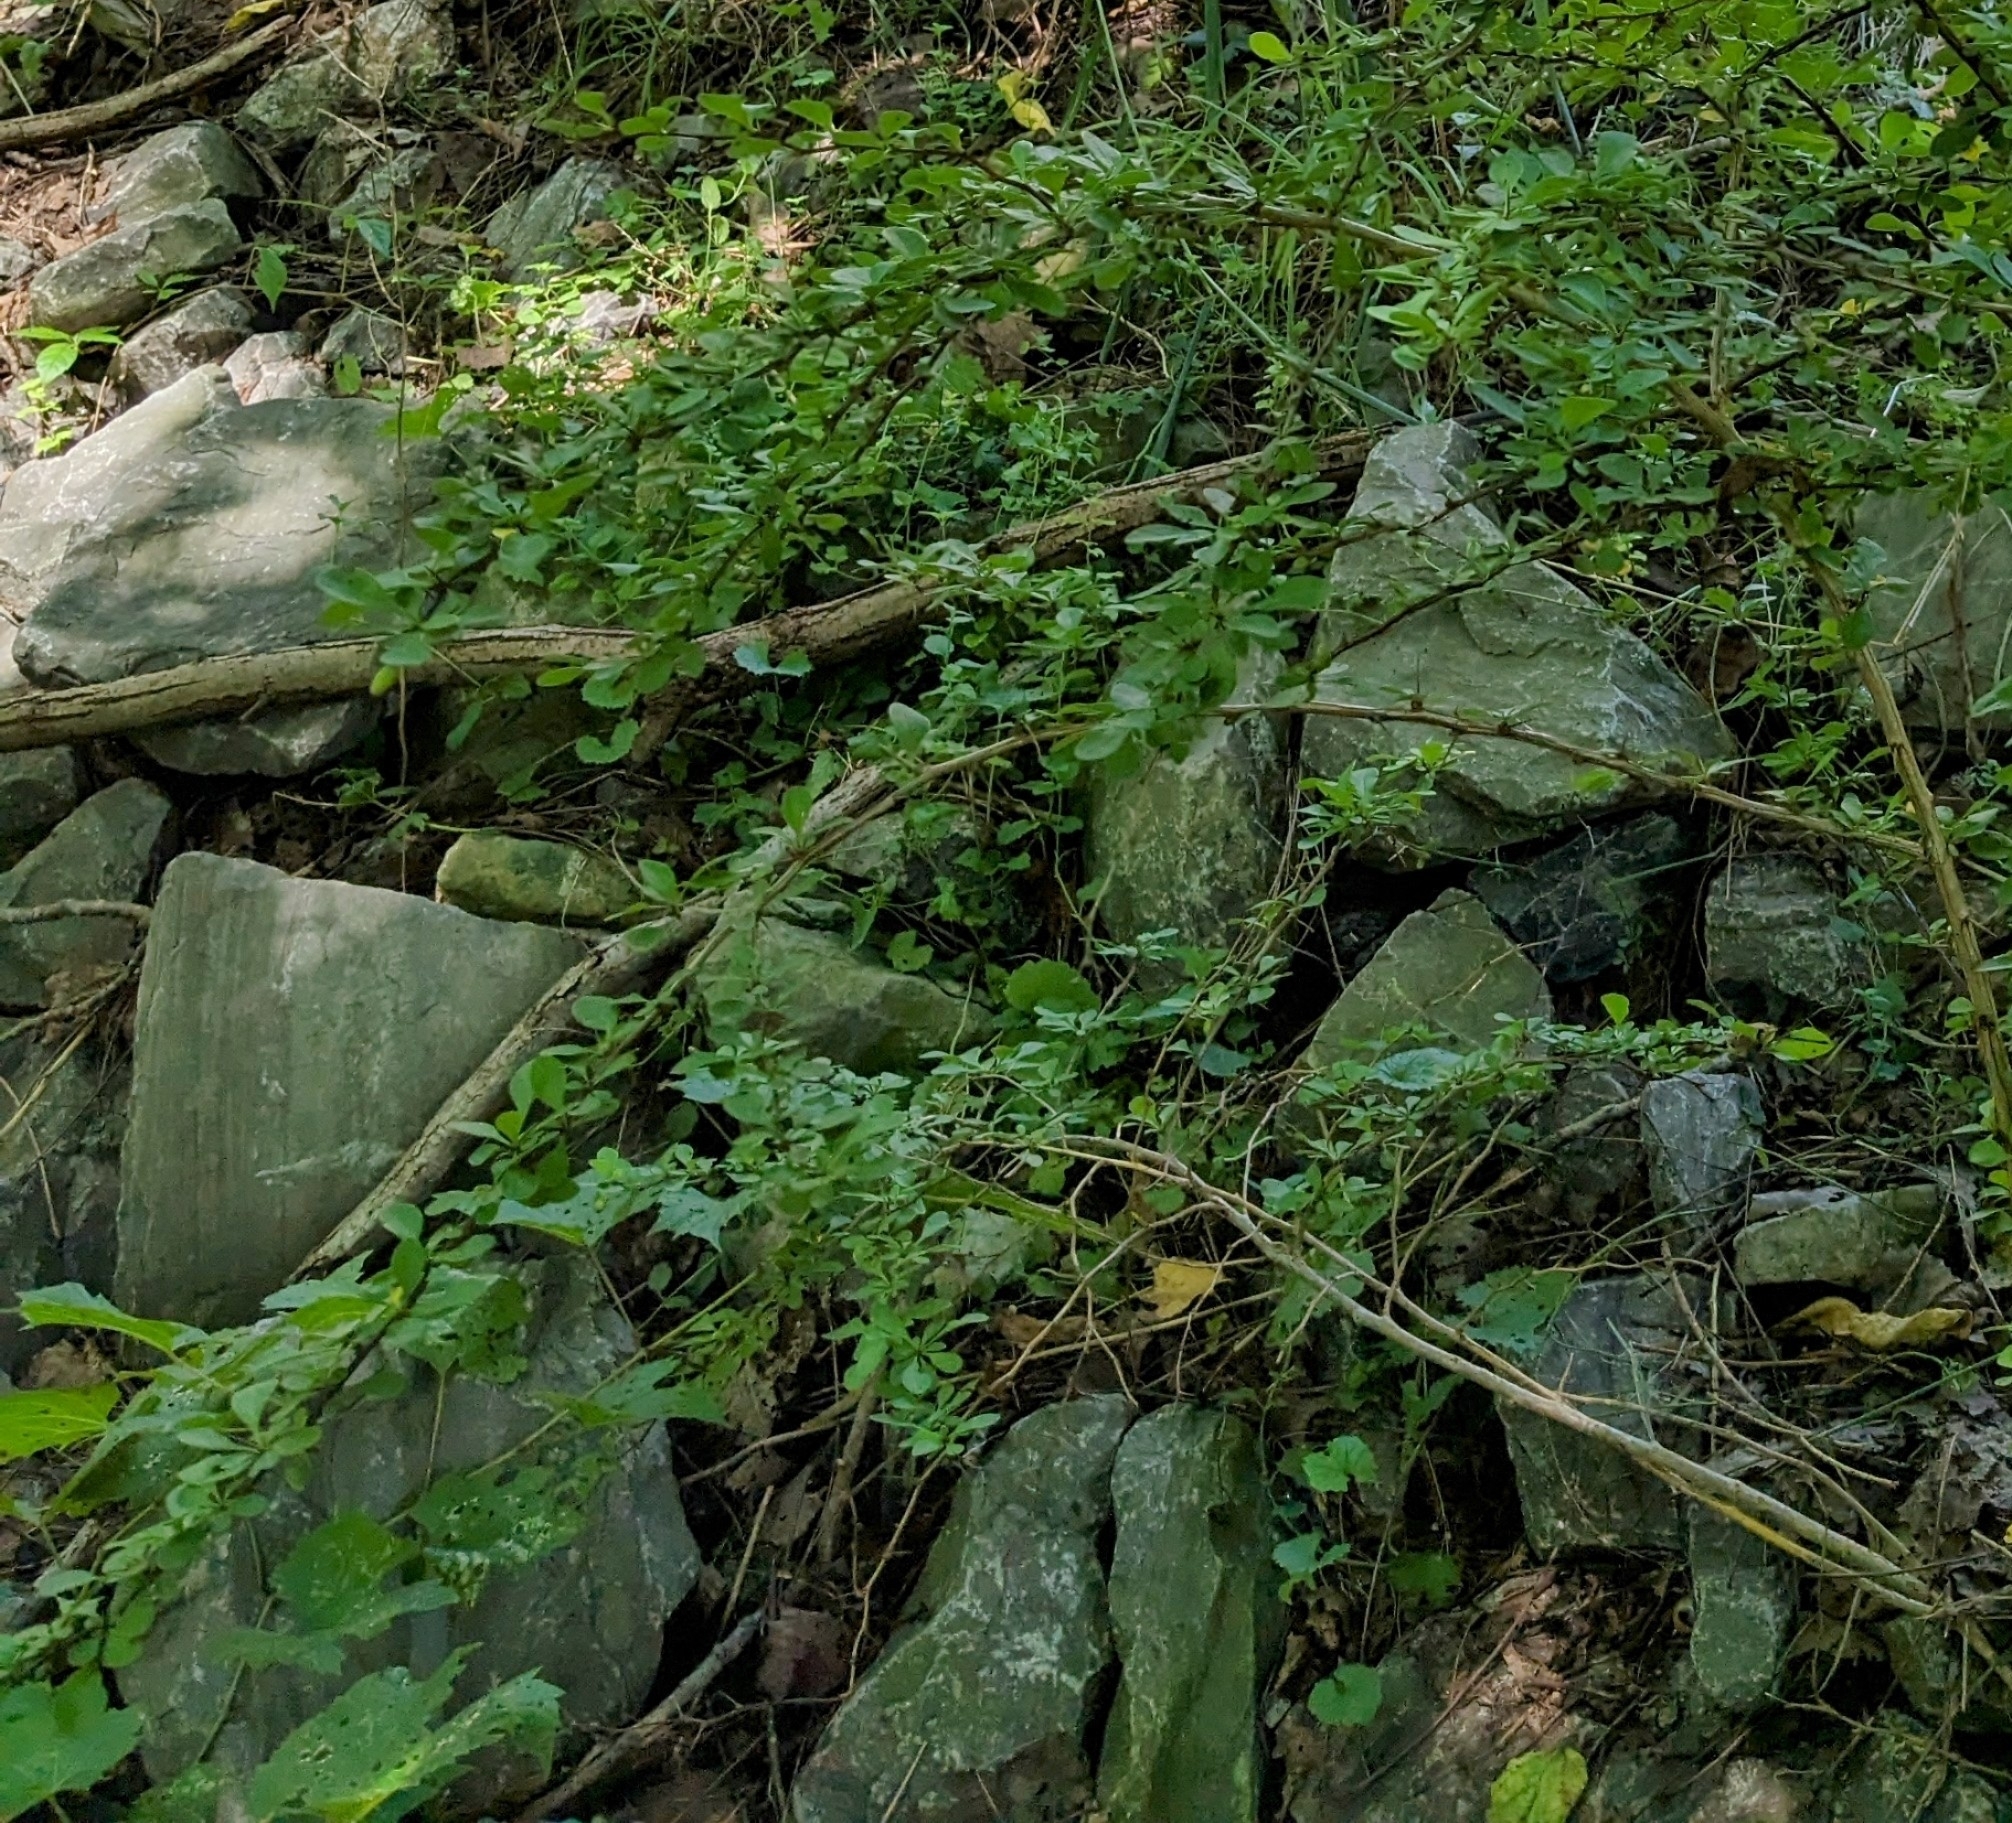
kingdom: Plantae
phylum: Tracheophyta
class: Magnoliopsida
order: Ranunculales
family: Berberidaceae
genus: Berberis
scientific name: Berberis thunbergii
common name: Japanese barberry
